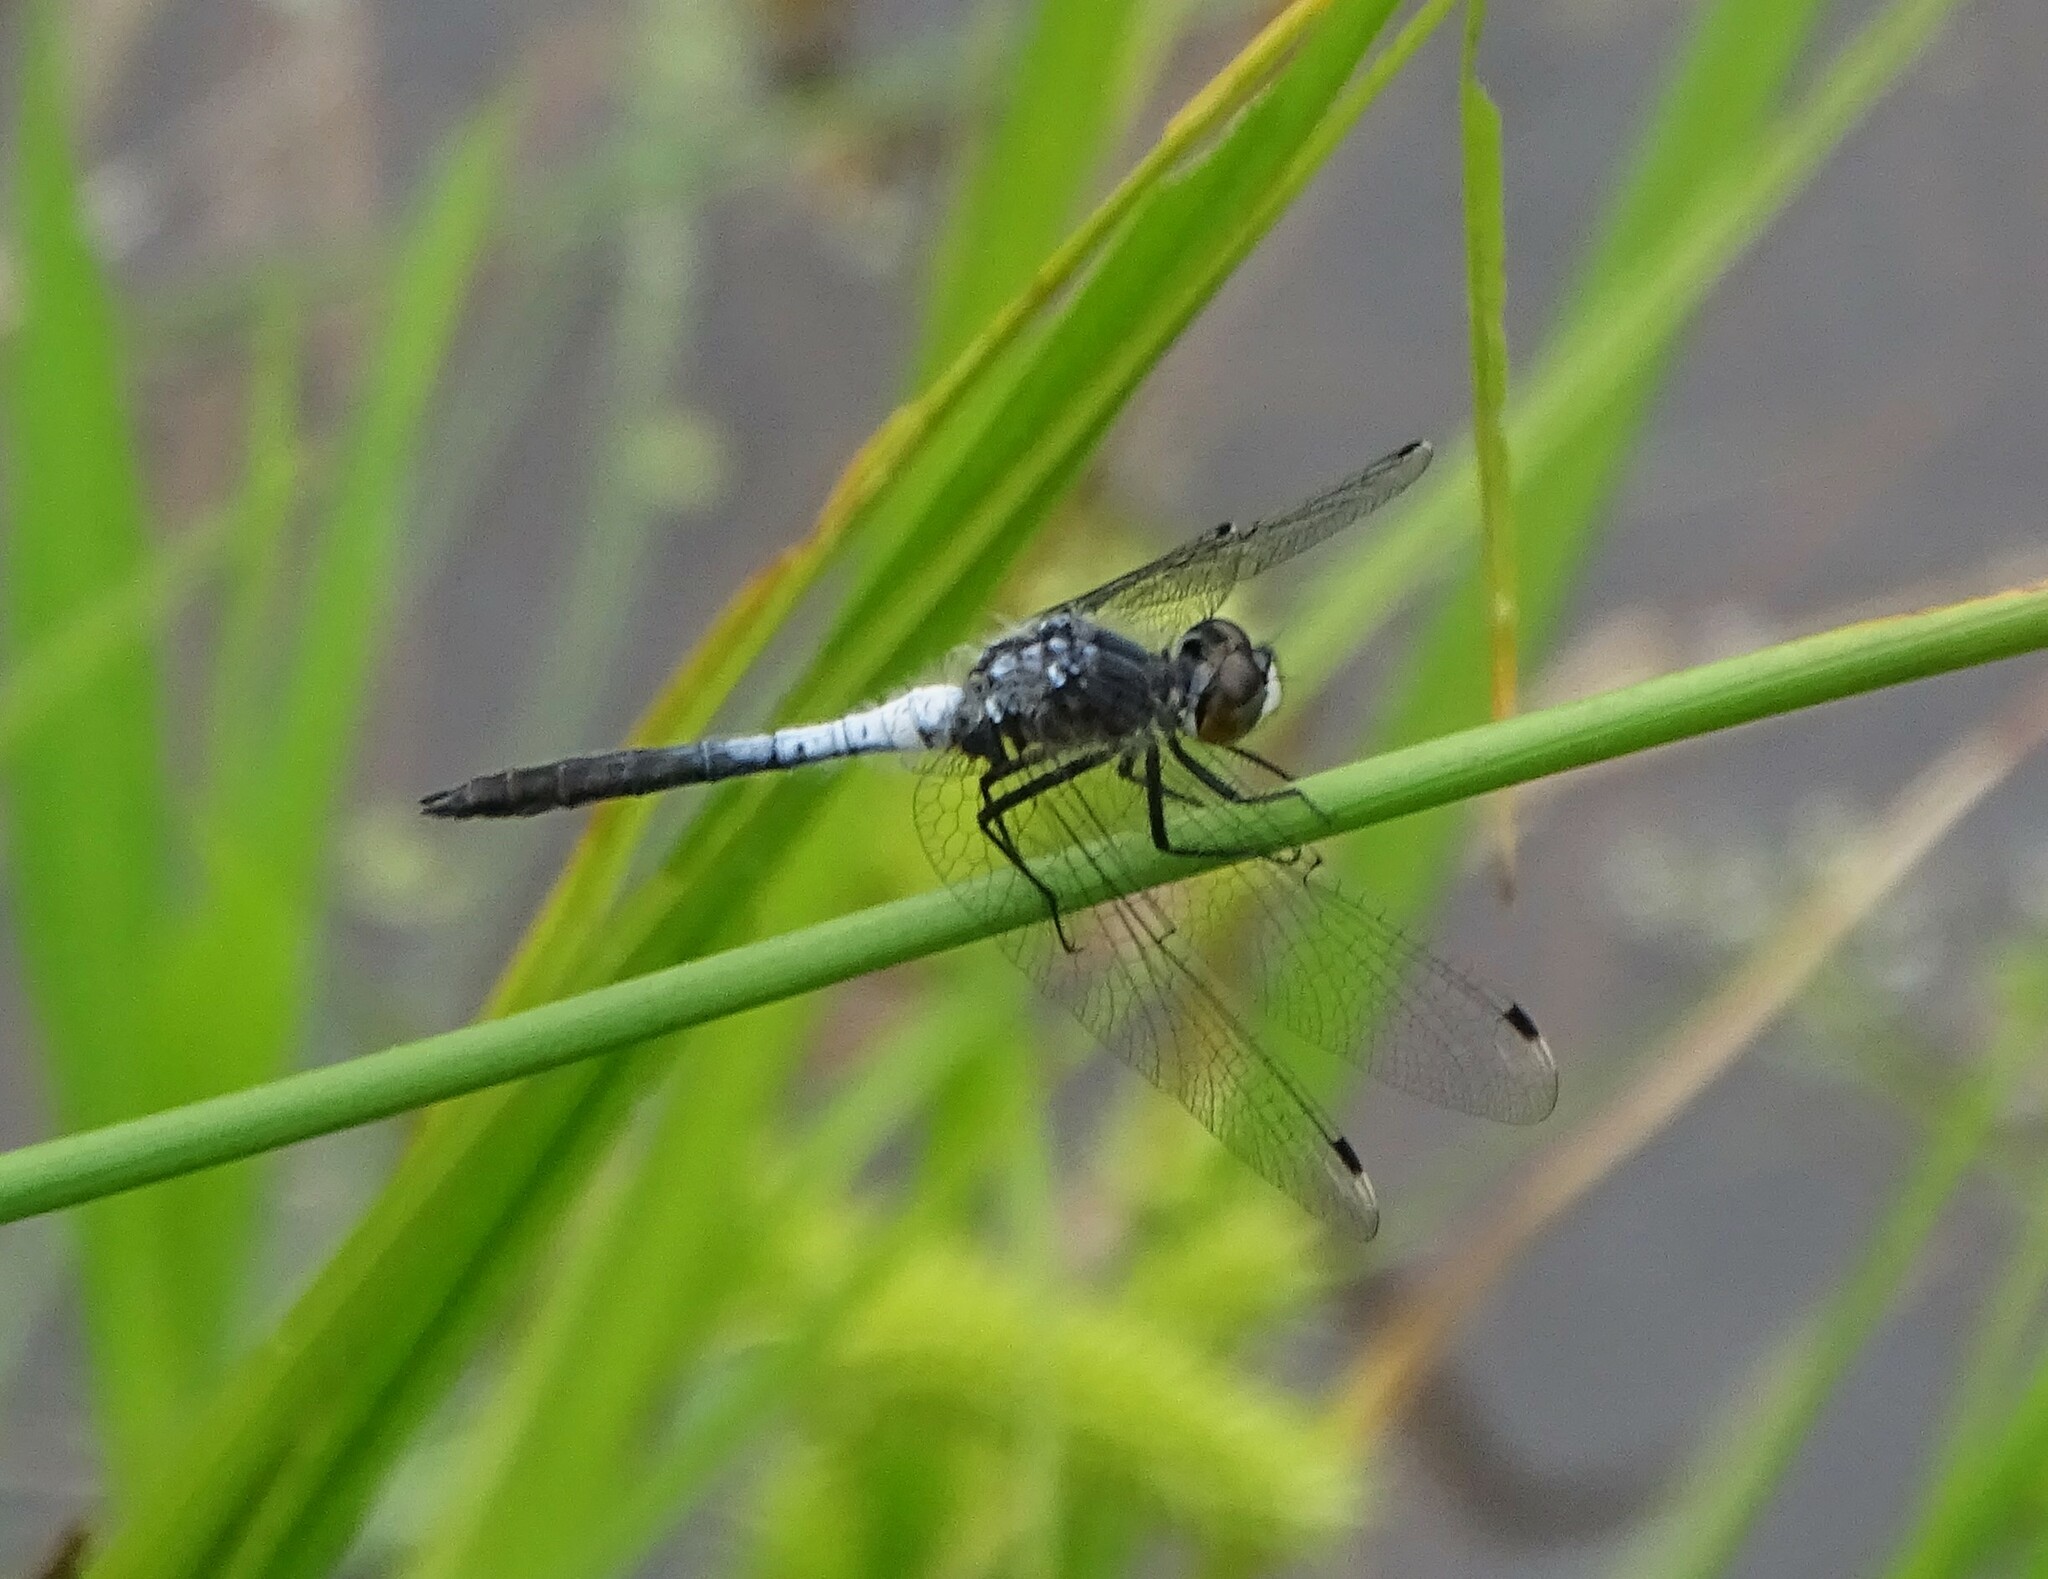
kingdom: Animalia
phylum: Arthropoda
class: Insecta
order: Odonata
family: Libellulidae
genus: Leucorrhinia
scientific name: Leucorrhinia frigida
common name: Frosted whiteface
